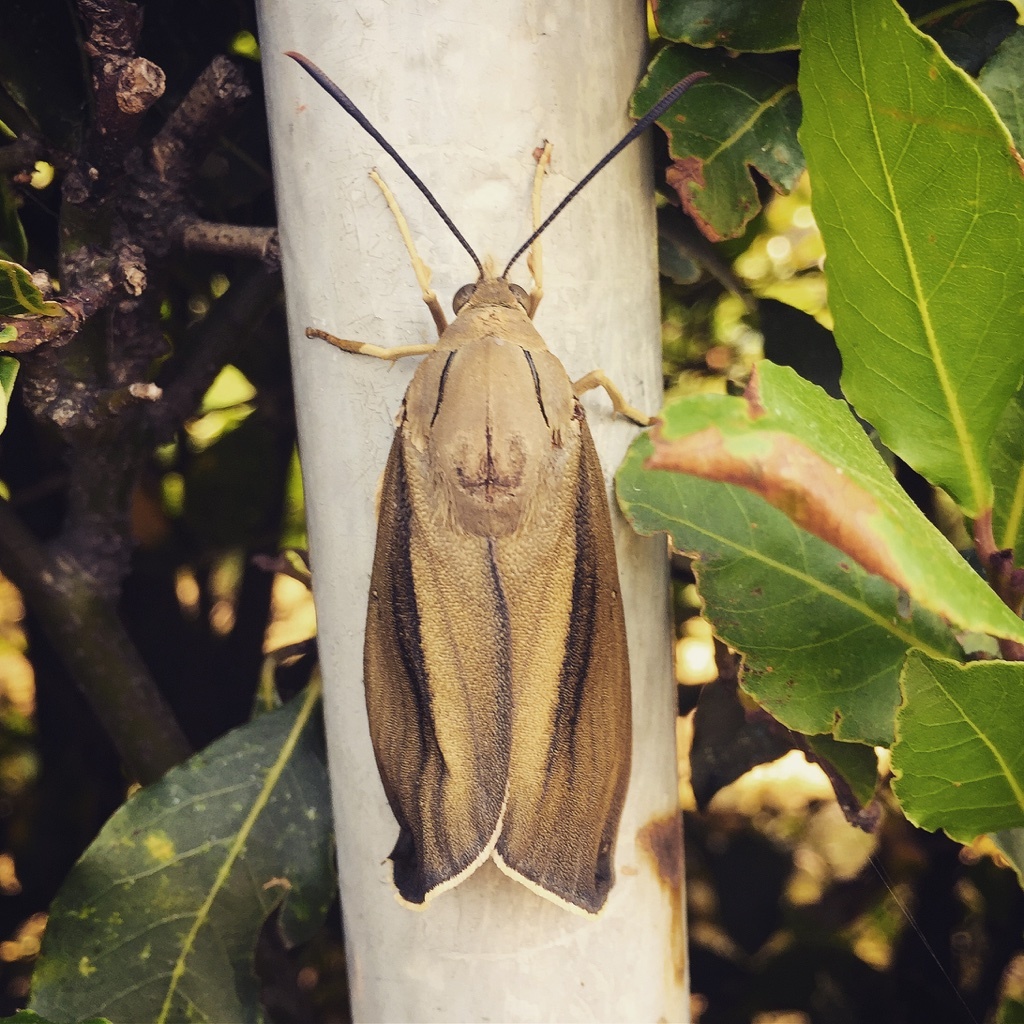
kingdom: Animalia
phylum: Arthropoda
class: Insecta
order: Lepidoptera
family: Castniidae
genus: Paysandisia
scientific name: Paysandisia archon
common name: Palm moth
